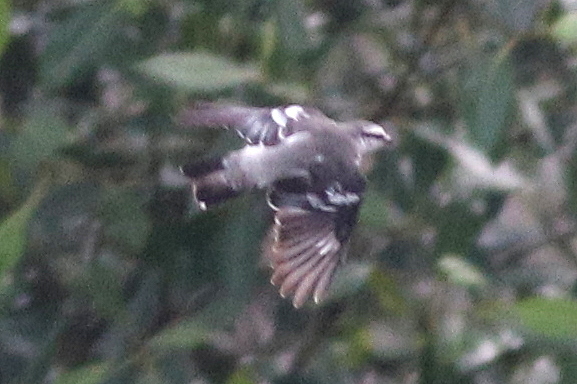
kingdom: Animalia
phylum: Chordata
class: Aves
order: Passeriformes
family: Campephagidae
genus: Lalage
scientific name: Lalage nigra
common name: Pied triller
